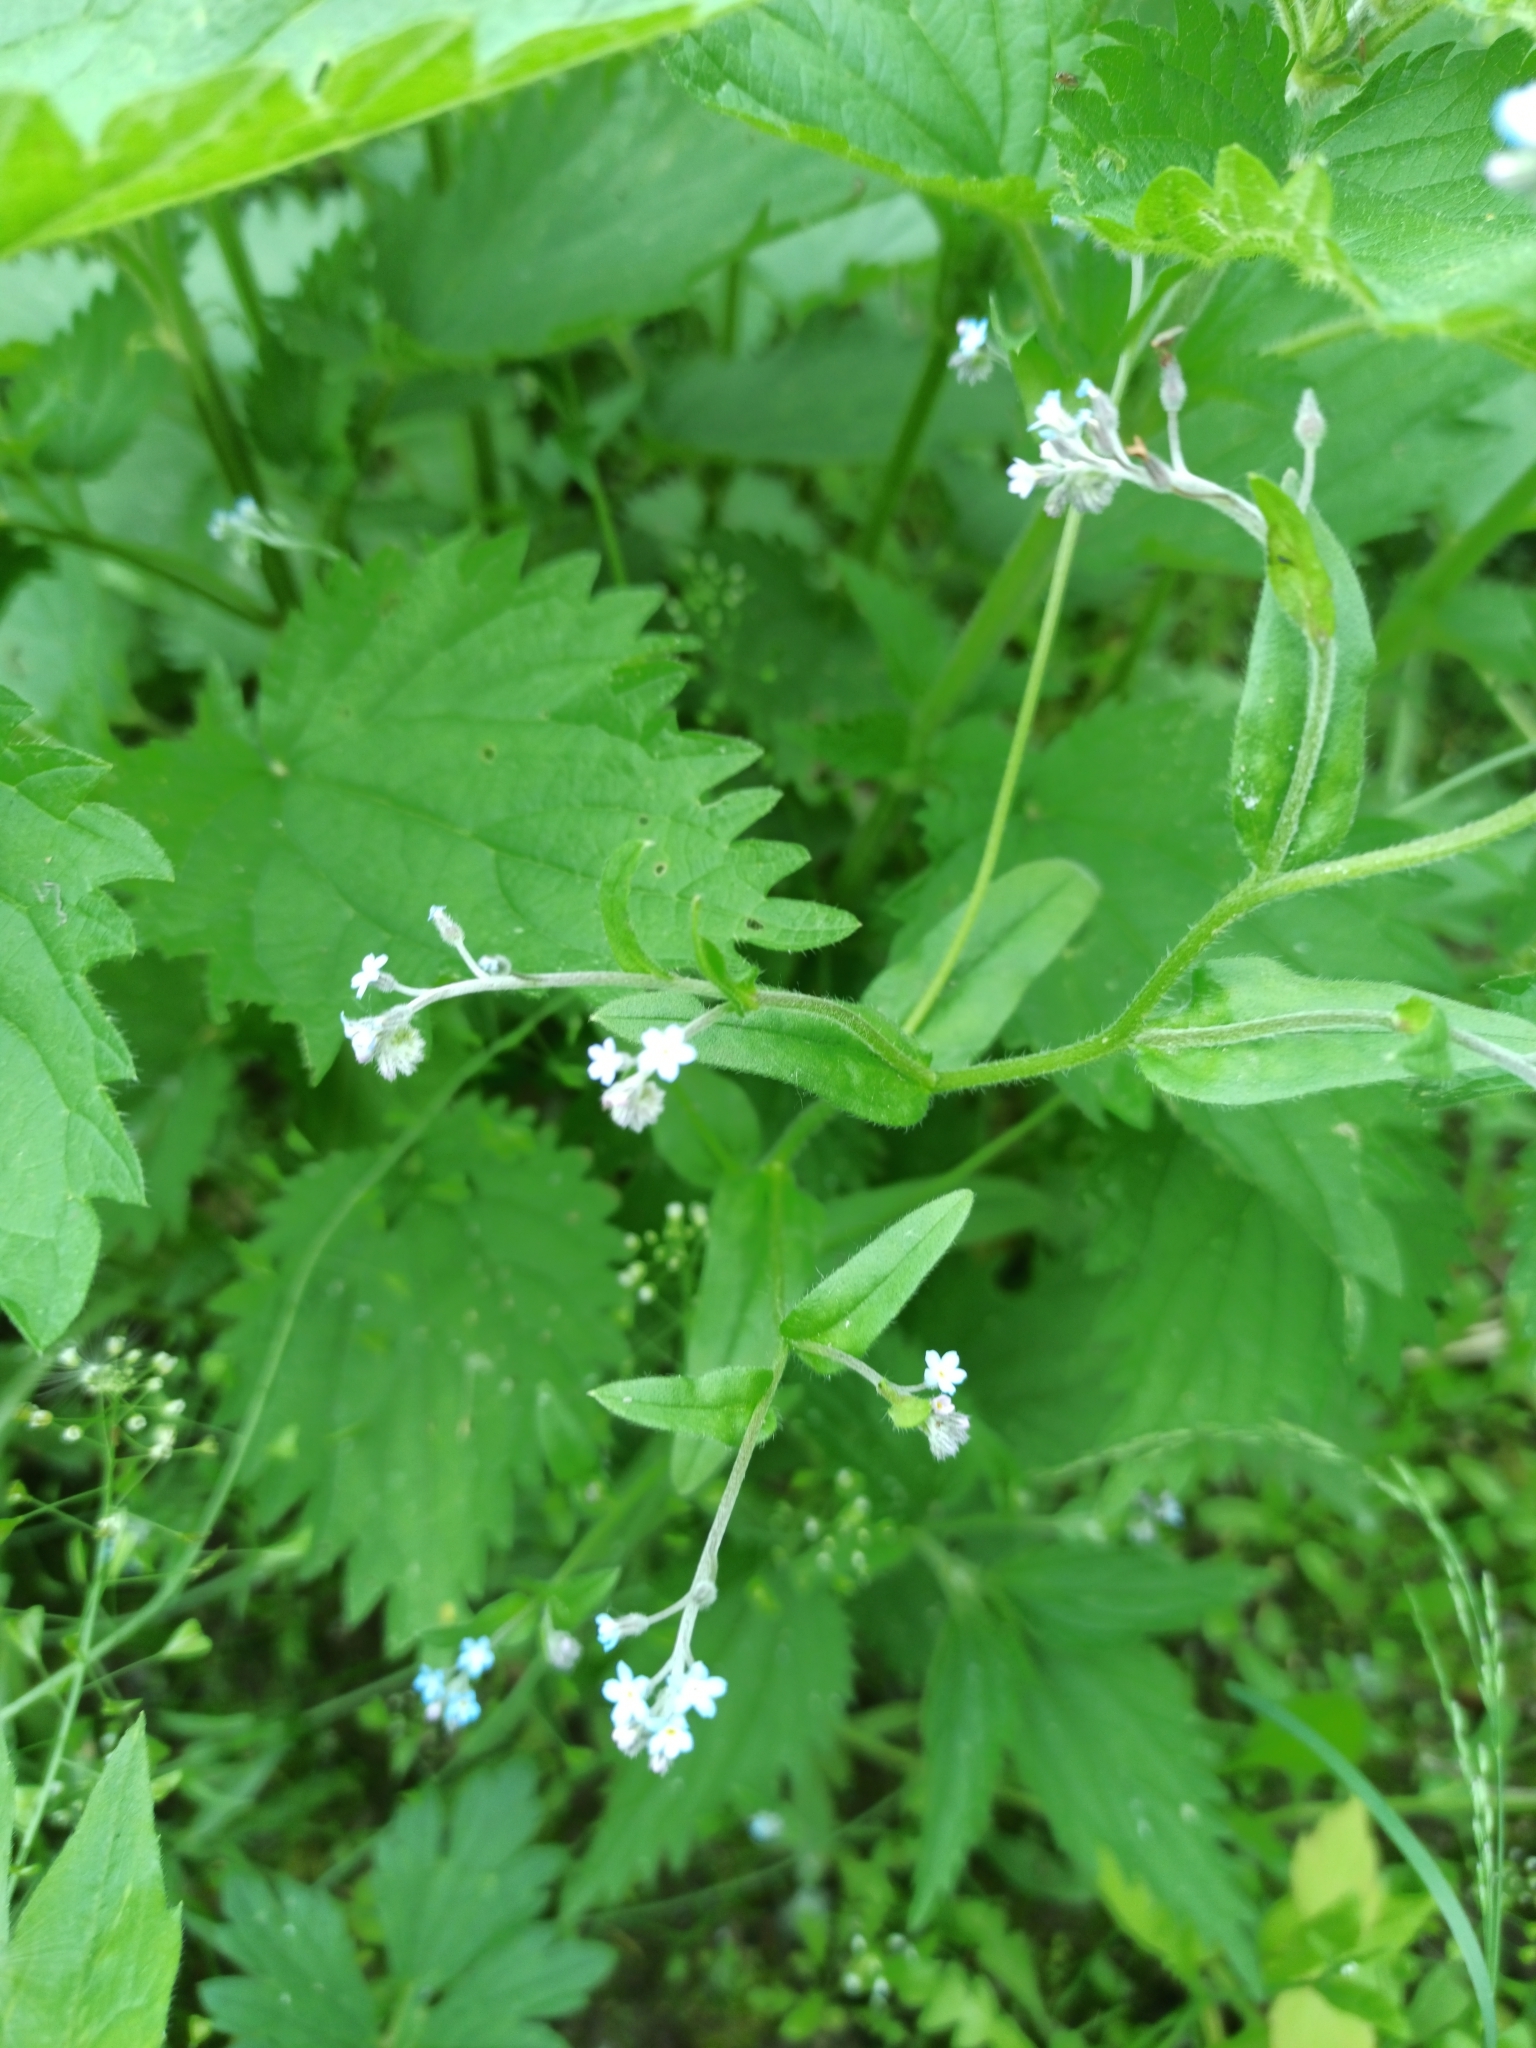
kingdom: Plantae
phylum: Tracheophyta
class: Magnoliopsida
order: Boraginales
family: Boraginaceae
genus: Myosotis
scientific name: Myosotis arvensis
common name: Field forget-me-not
